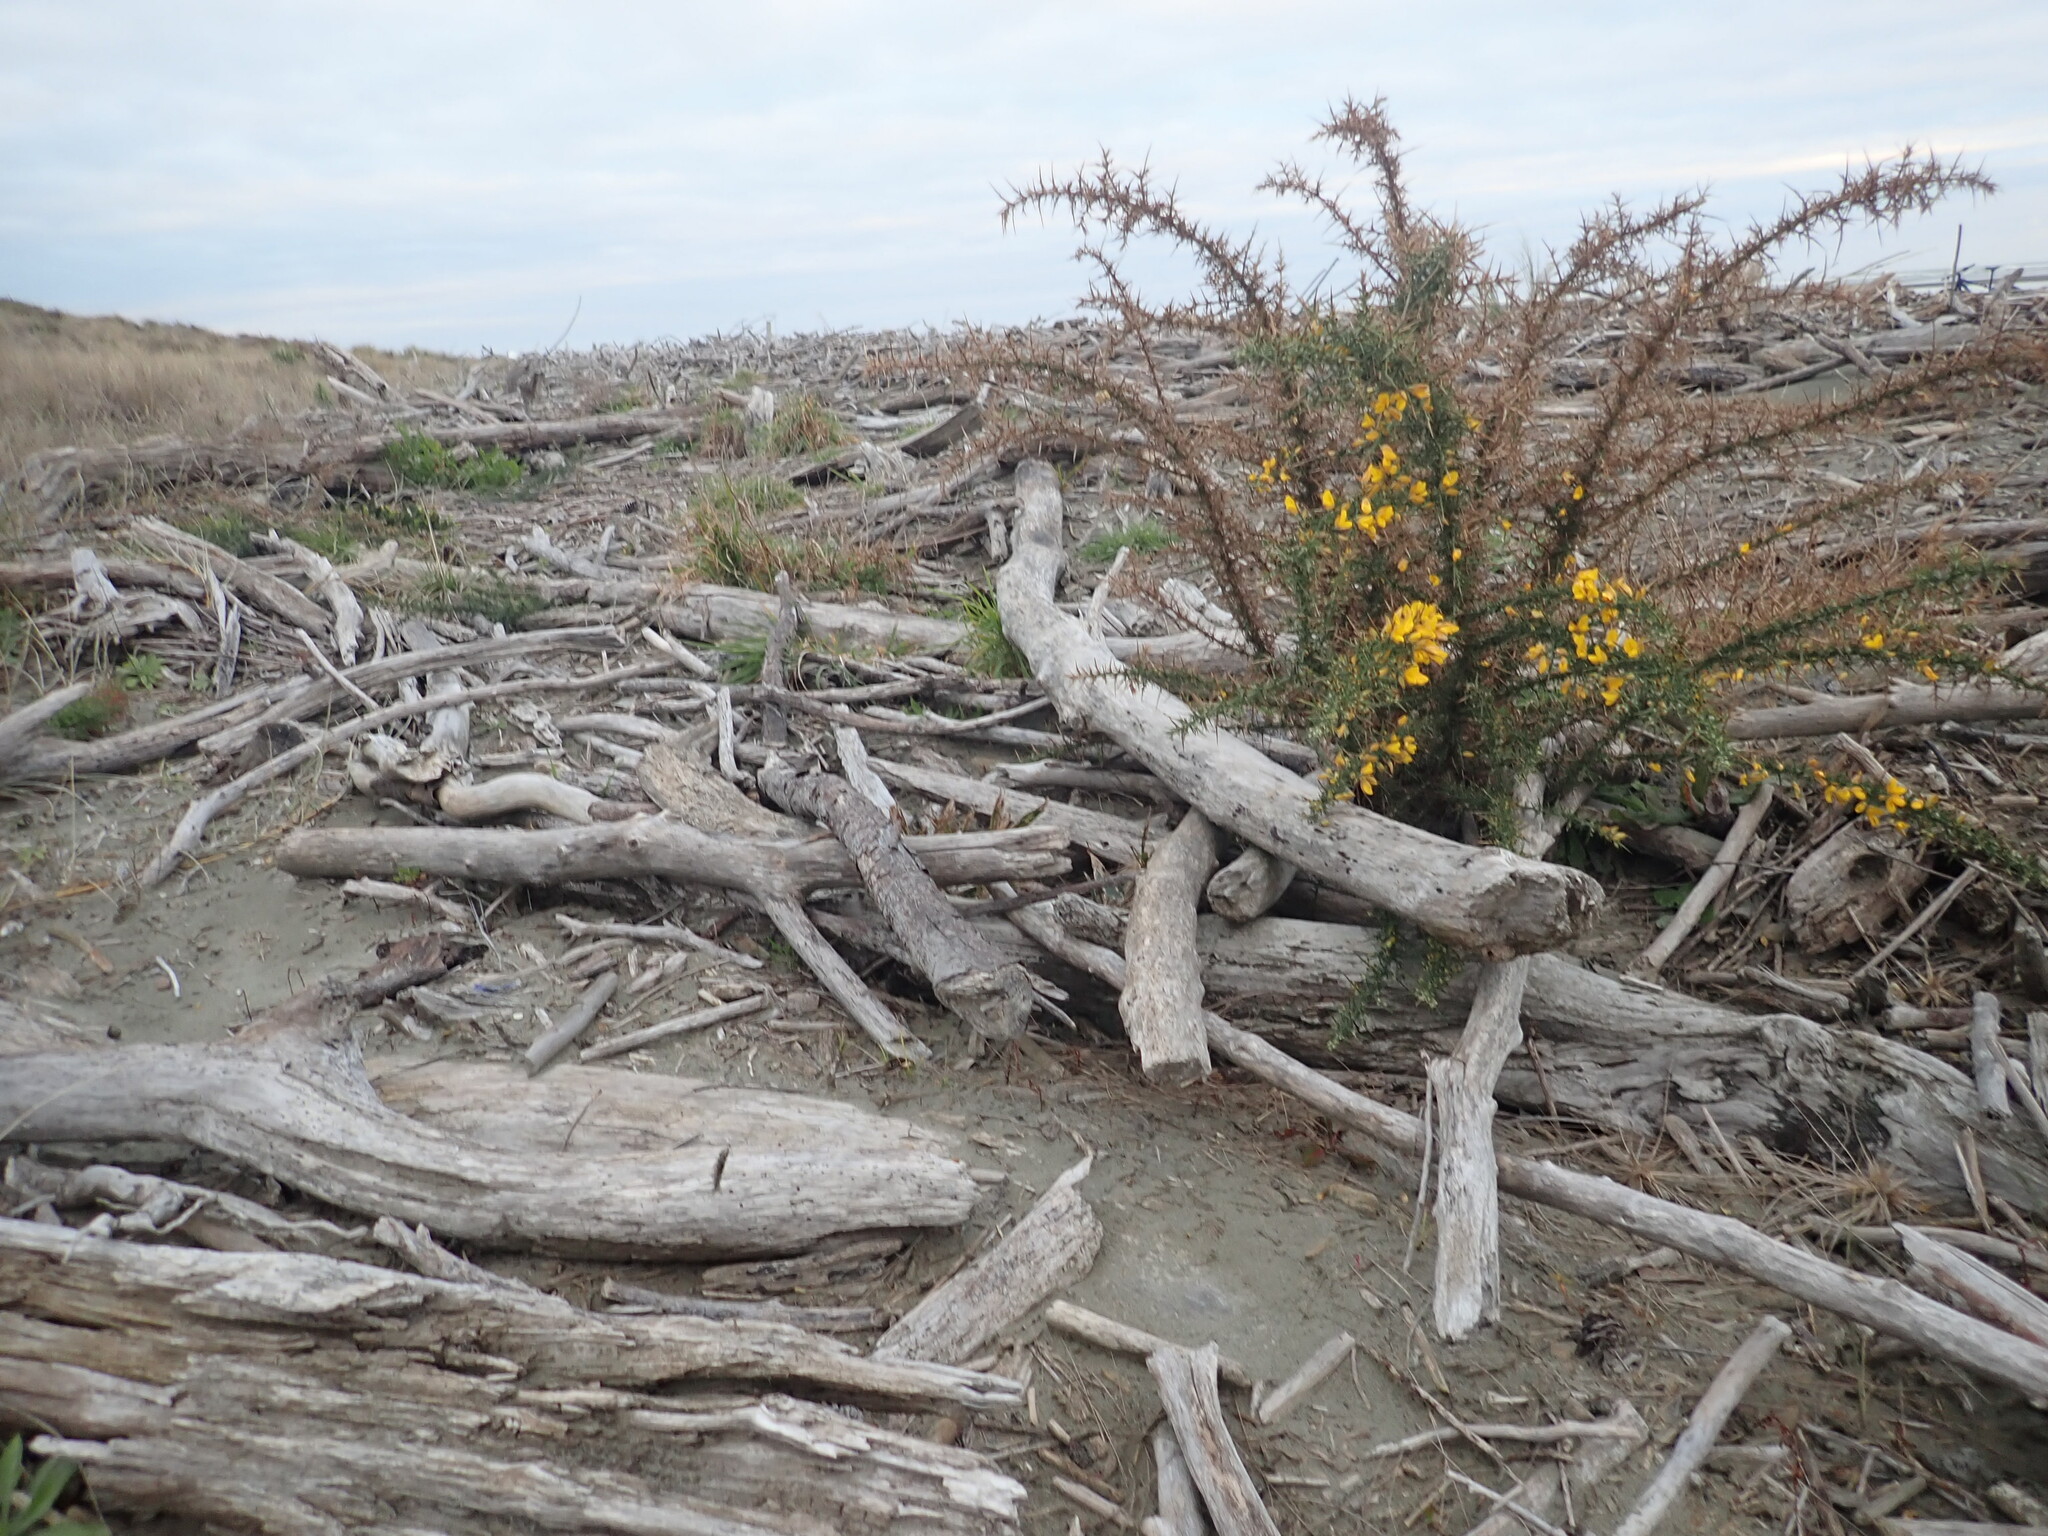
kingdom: Plantae
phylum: Tracheophyta
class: Magnoliopsida
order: Fabales
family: Fabaceae
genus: Ulex
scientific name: Ulex europaeus
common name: Common gorse
